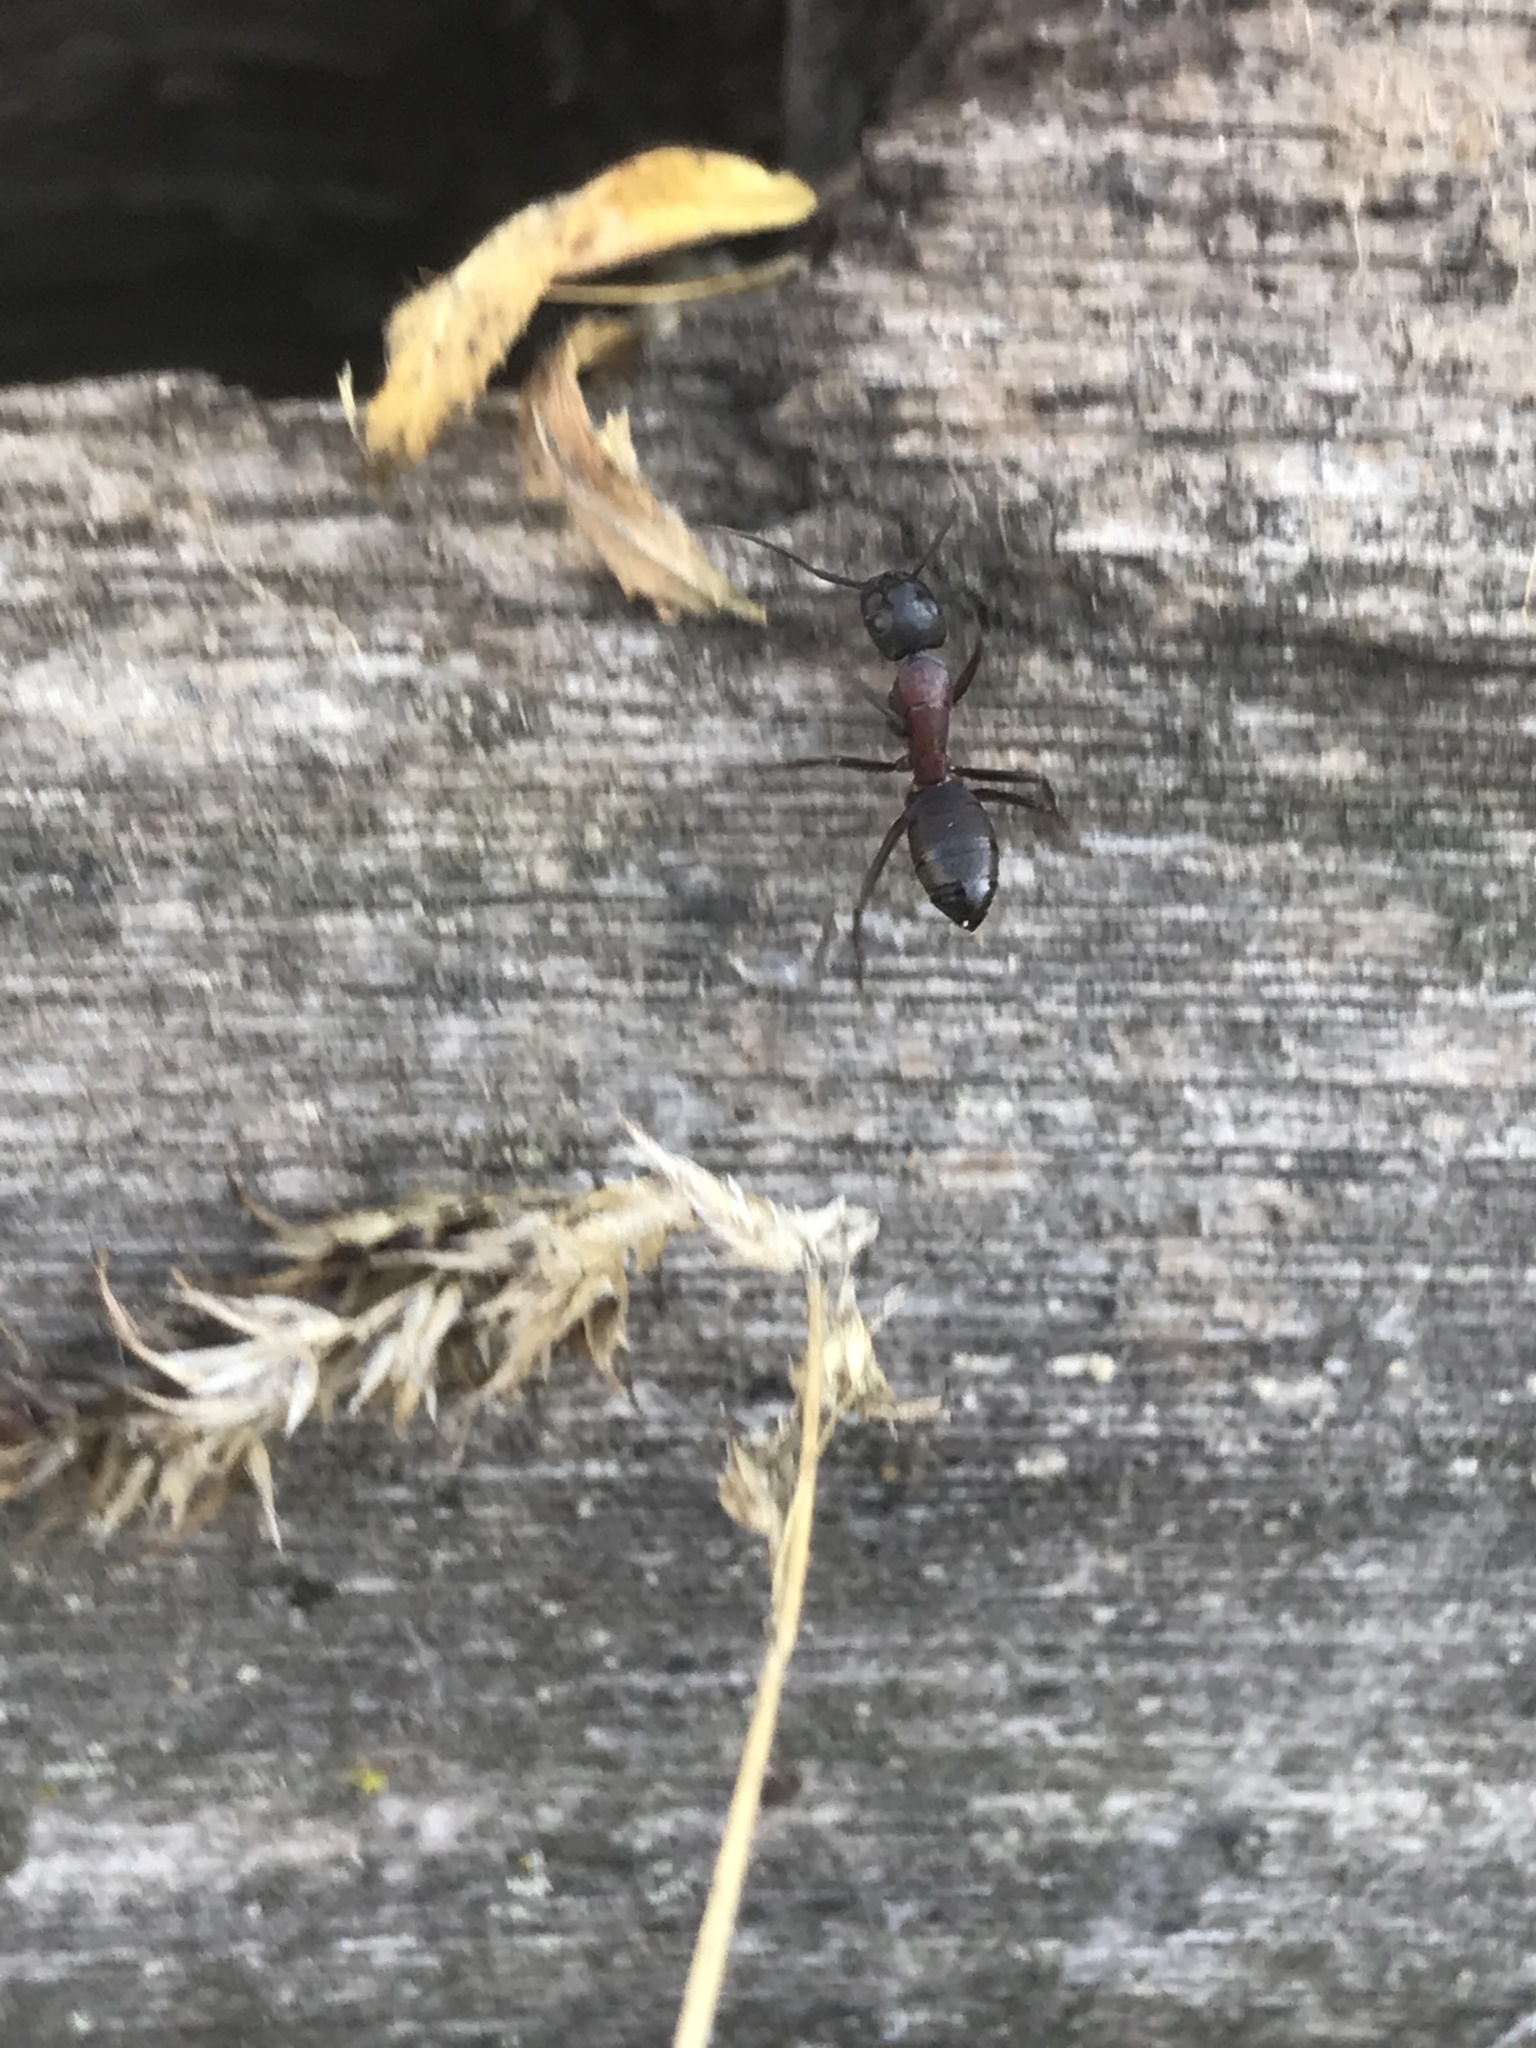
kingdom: Animalia
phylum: Arthropoda
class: Insecta
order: Hymenoptera
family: Formicidae
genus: Camponotus
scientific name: Camponotus vicinus
